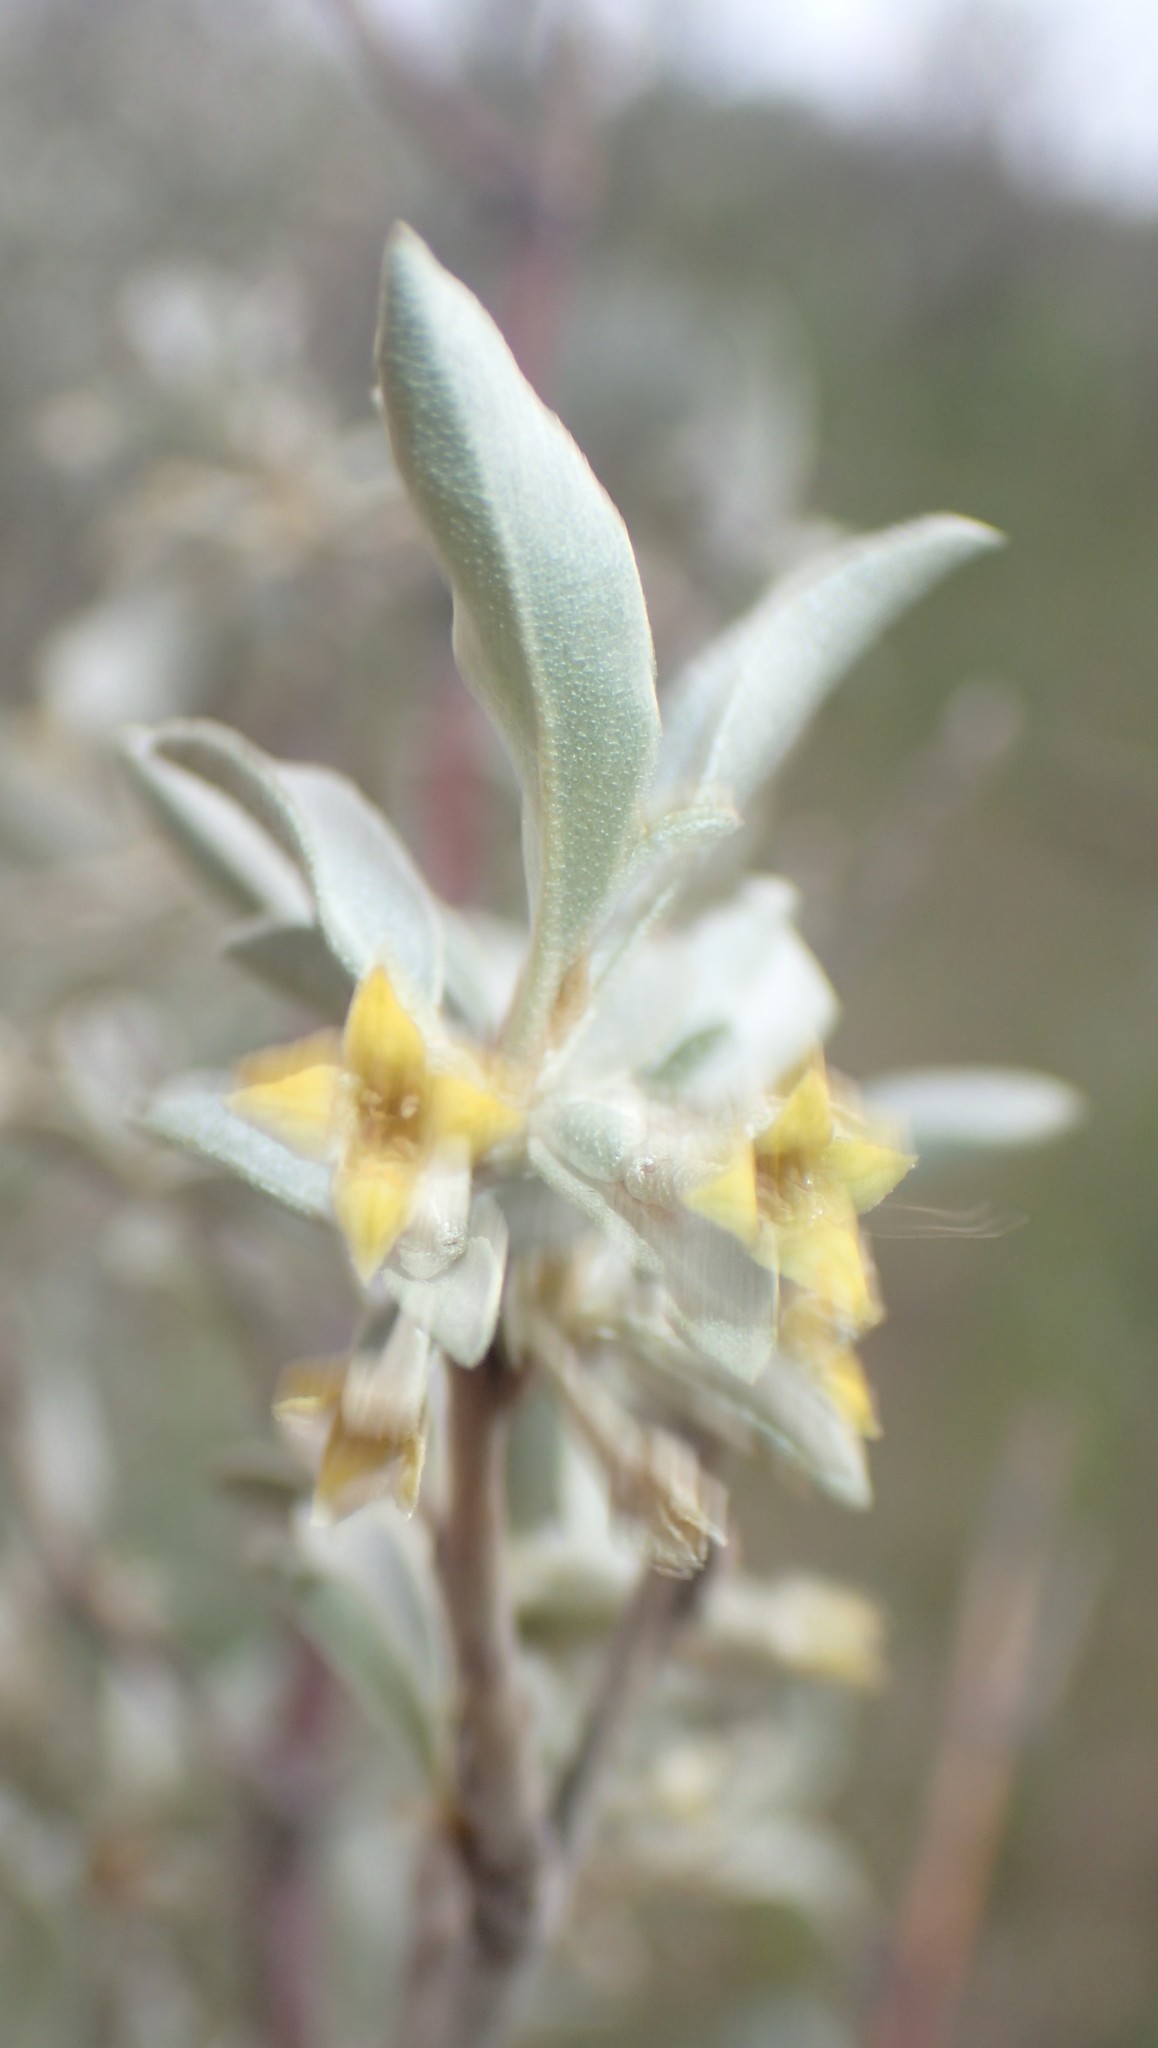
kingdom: Plantae
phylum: Tracheophyta
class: Magnoliopsida
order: Rosales
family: Elaeagnaceae
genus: Elaeagnus
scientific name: Elaeagnus commutata
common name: Silverberry
